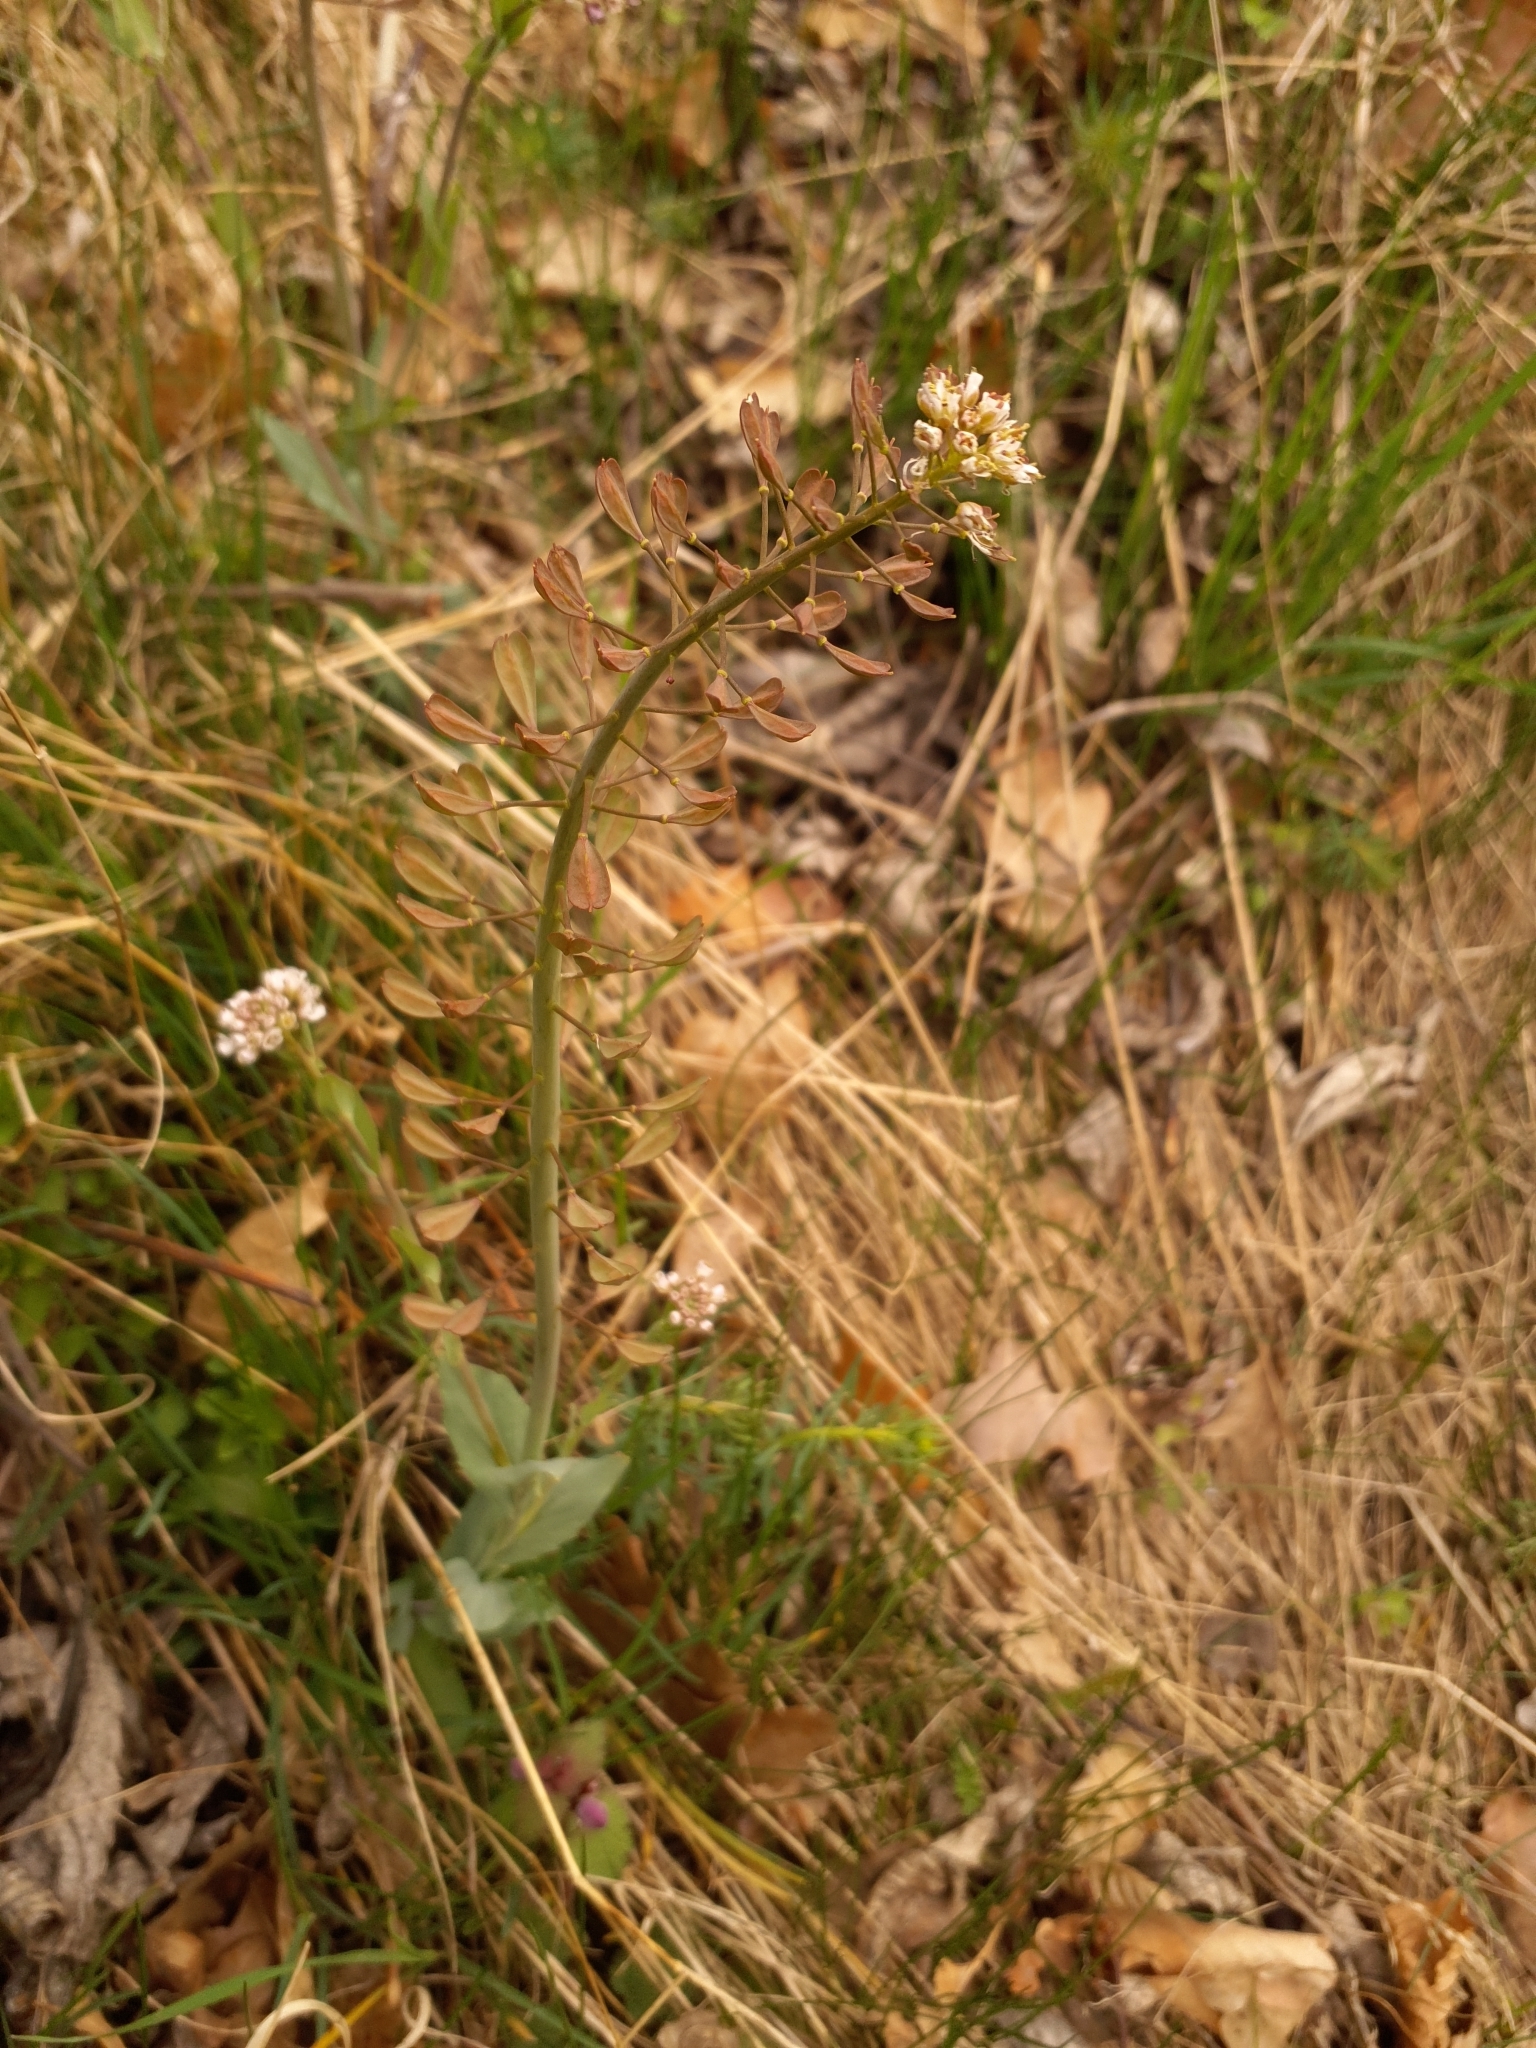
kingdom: Plantae
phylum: Tracheophyta
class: Magnoliopsida
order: Brassicales
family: Brassicaceae
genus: Noccaea
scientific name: Noccaea caerulescens
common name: Alpine pennycress
